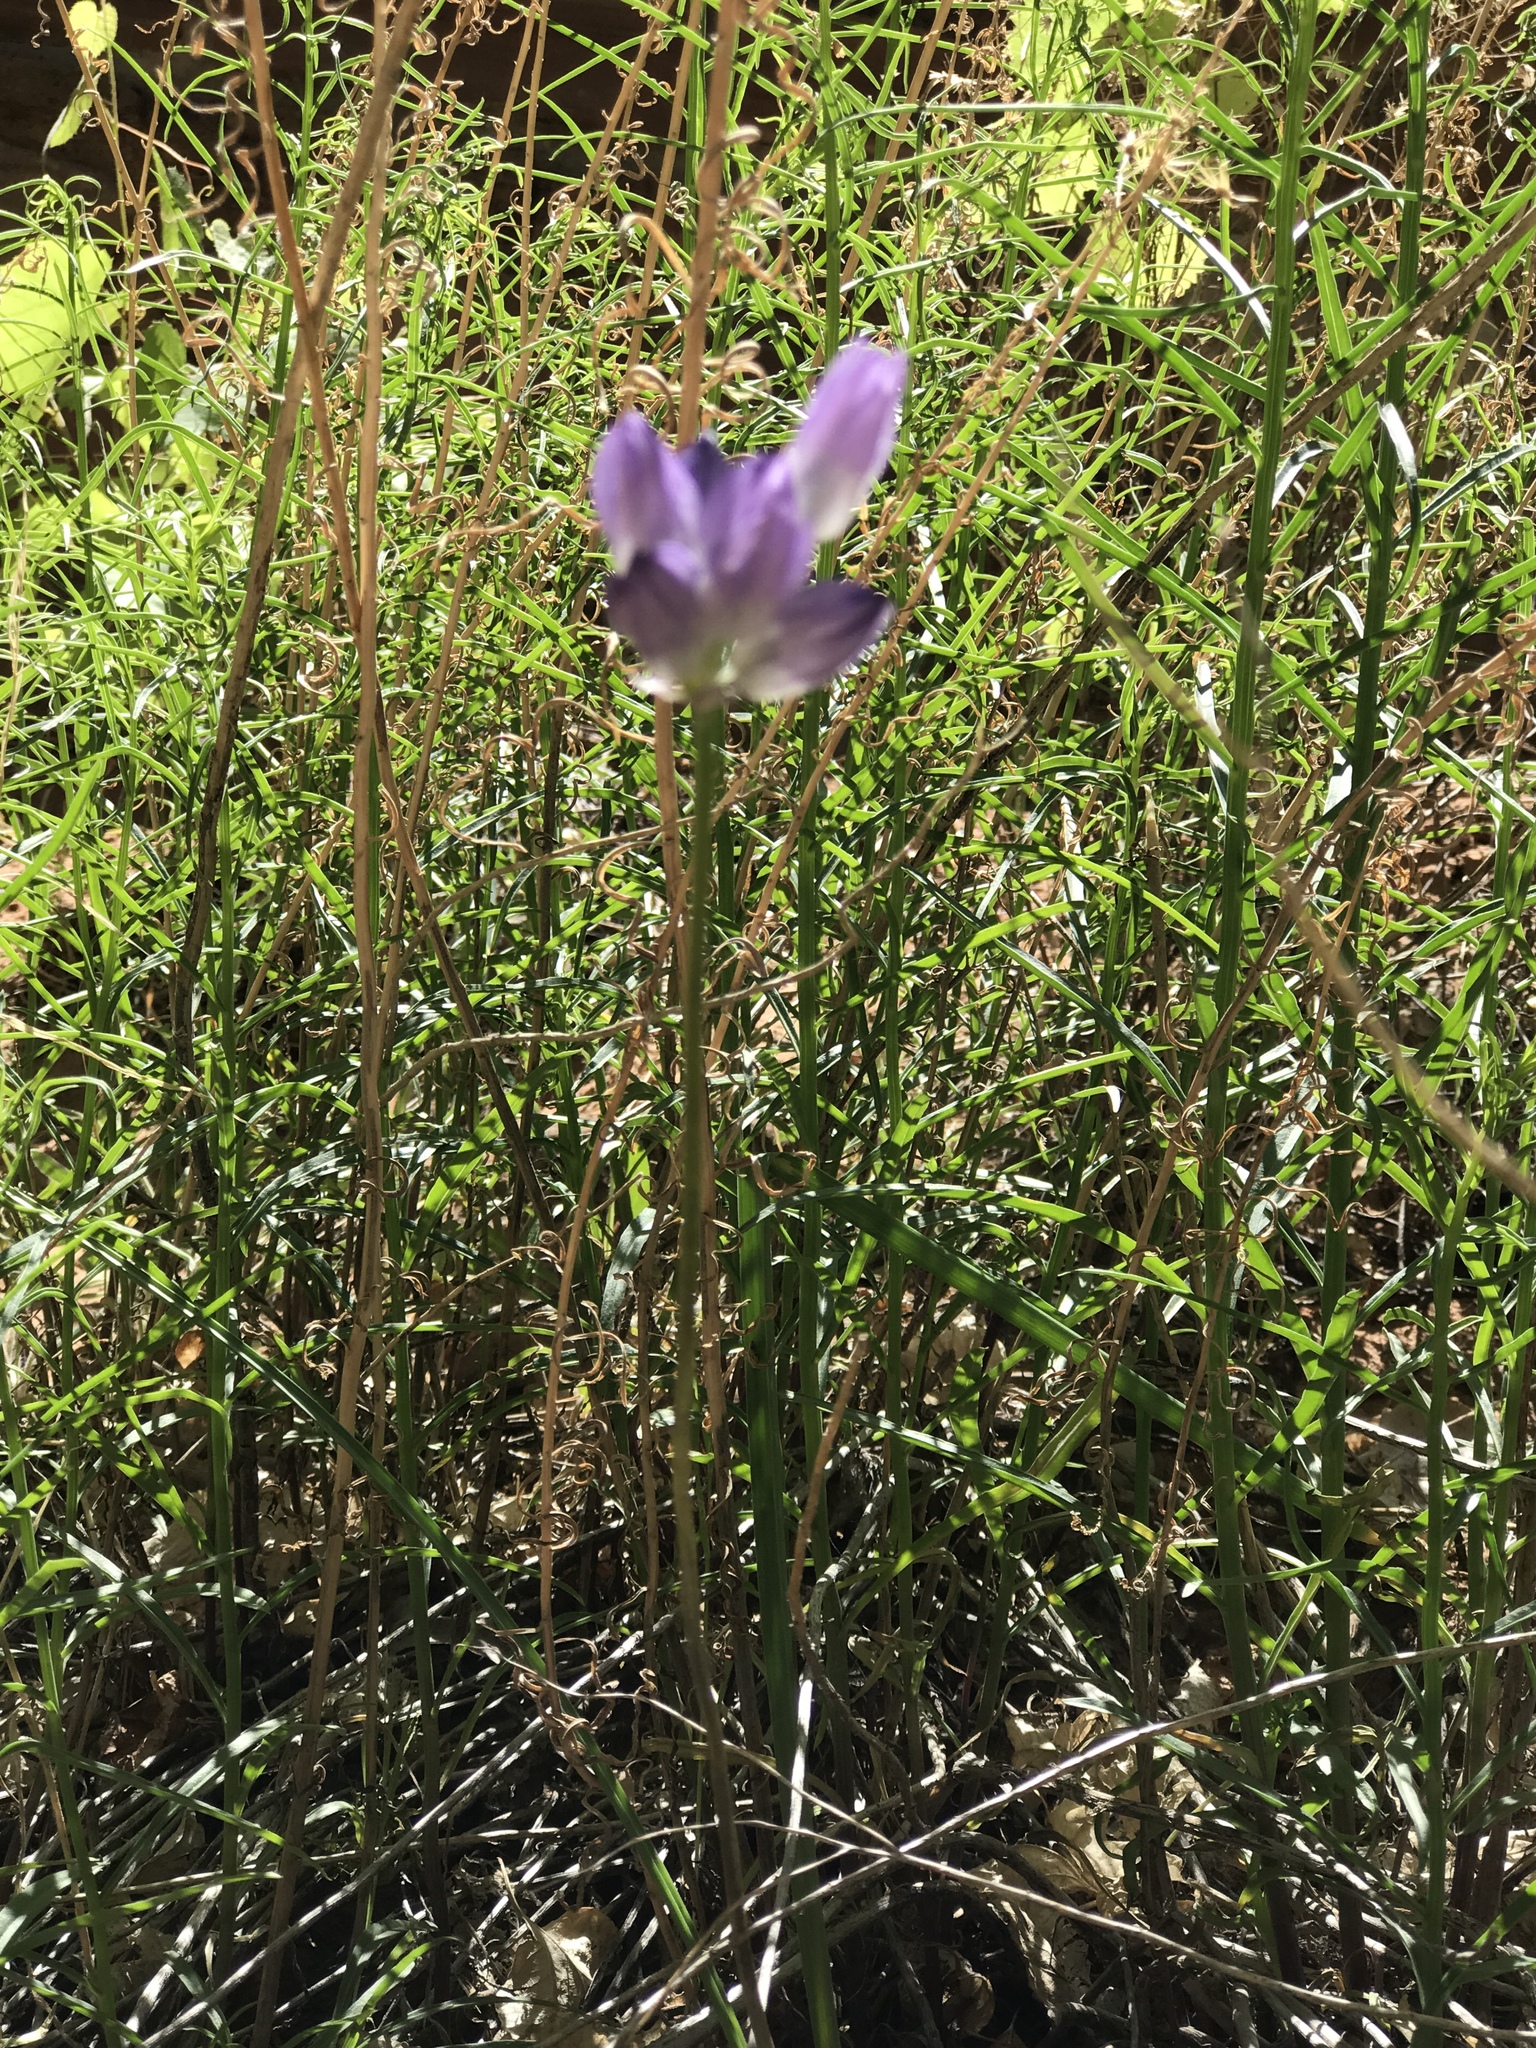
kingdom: Plantae
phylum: Tracheophyta
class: Liliopsida
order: Asparagales
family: Asparagaceae
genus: Dipterostemon
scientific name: Dipterostemon capitatus
